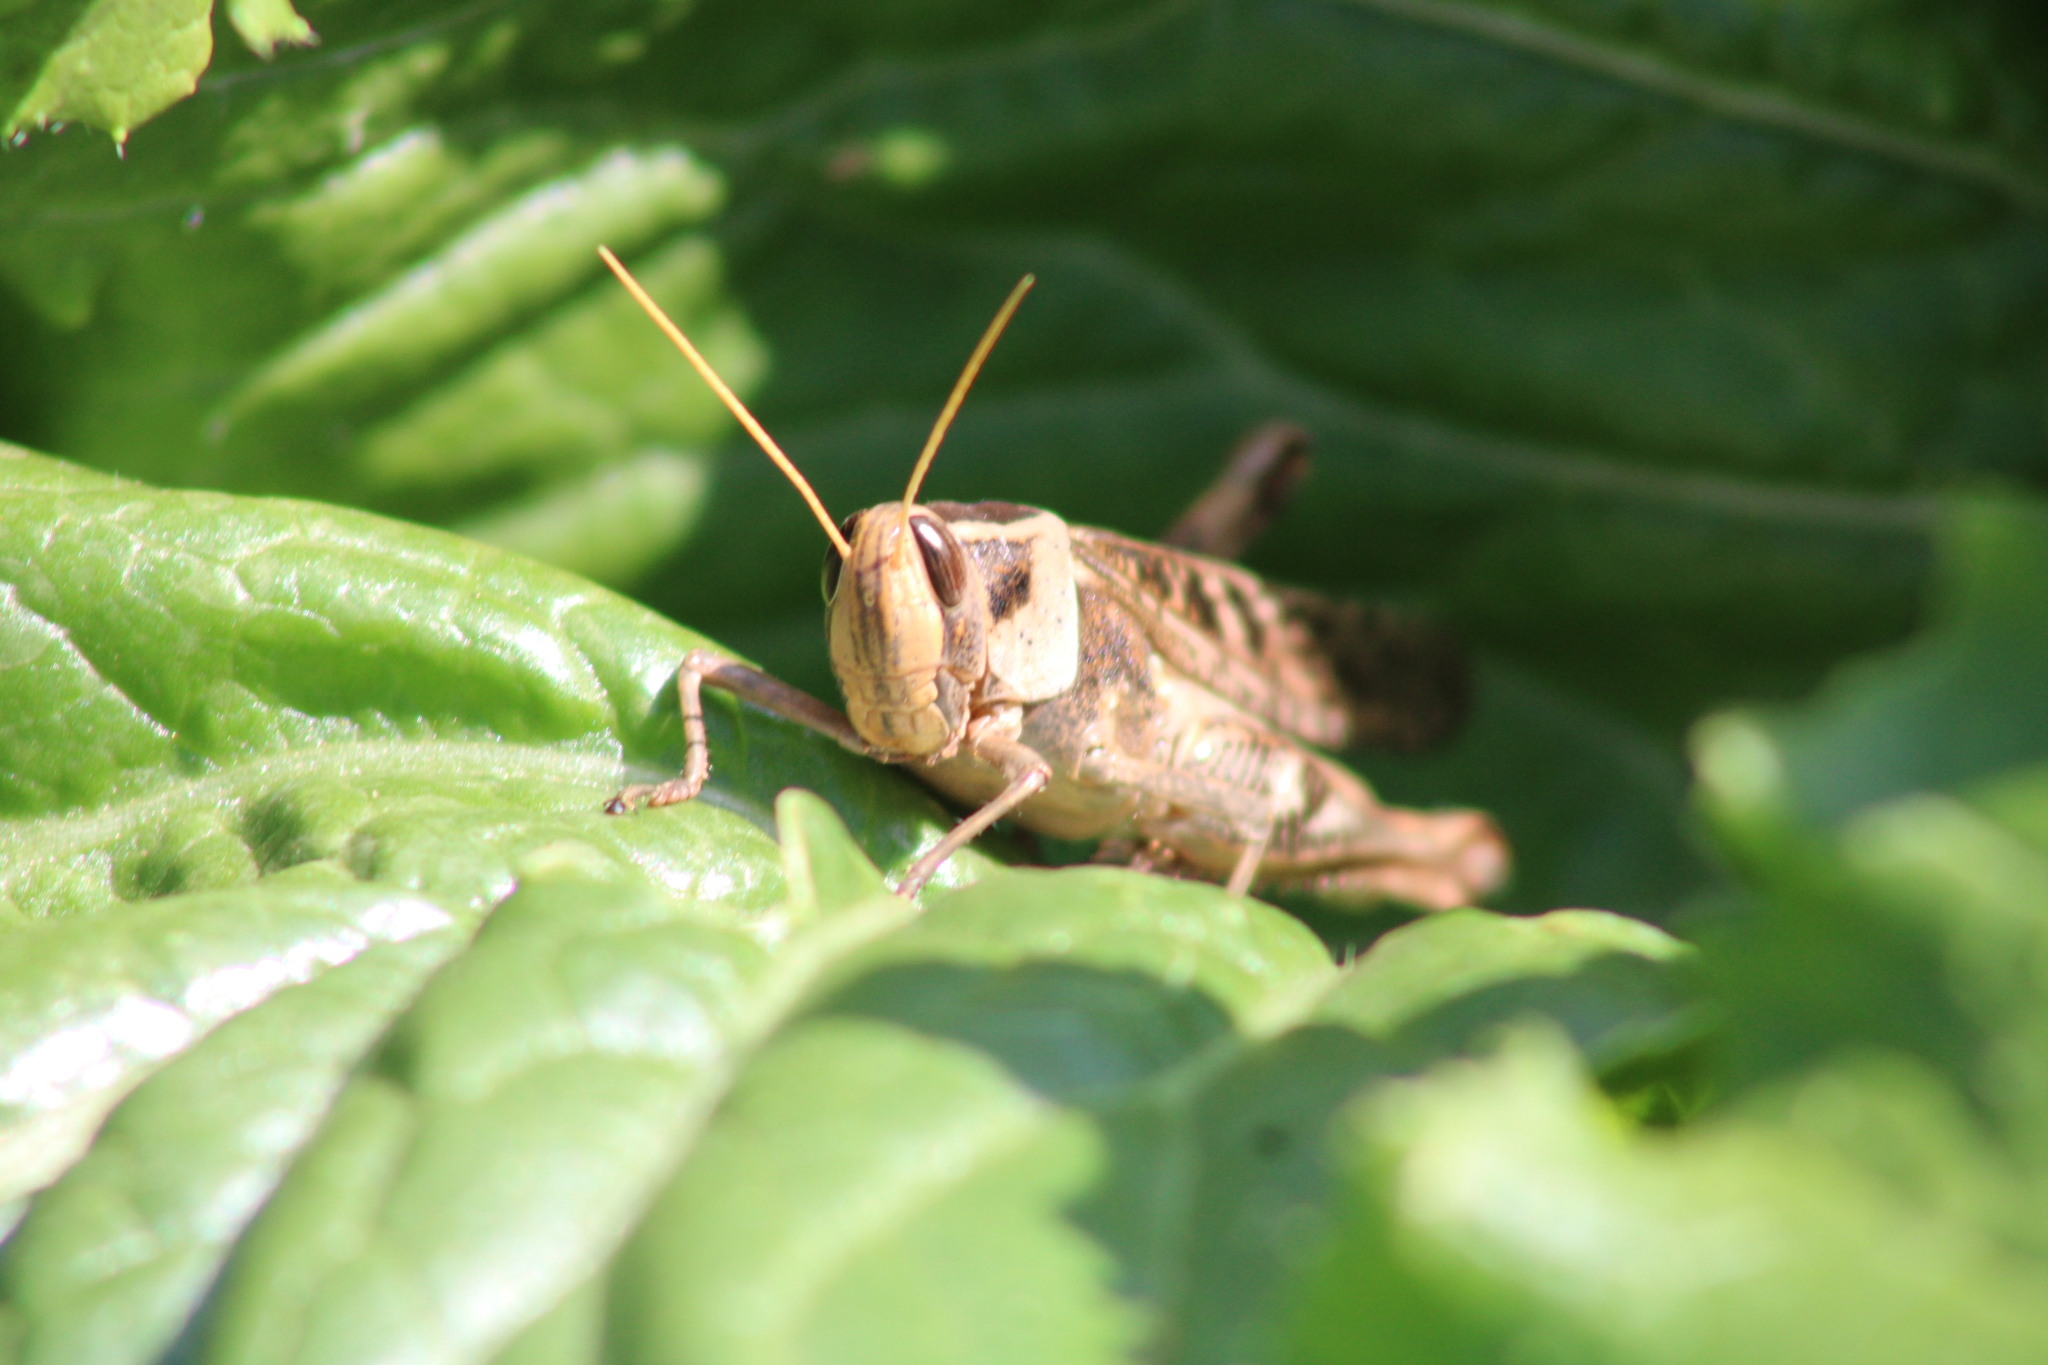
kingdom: Animalia
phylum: Arthropoda
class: Insecta
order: Orthoptera
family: Acrididae
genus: Heteracris
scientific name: Heteracris coerulescens
